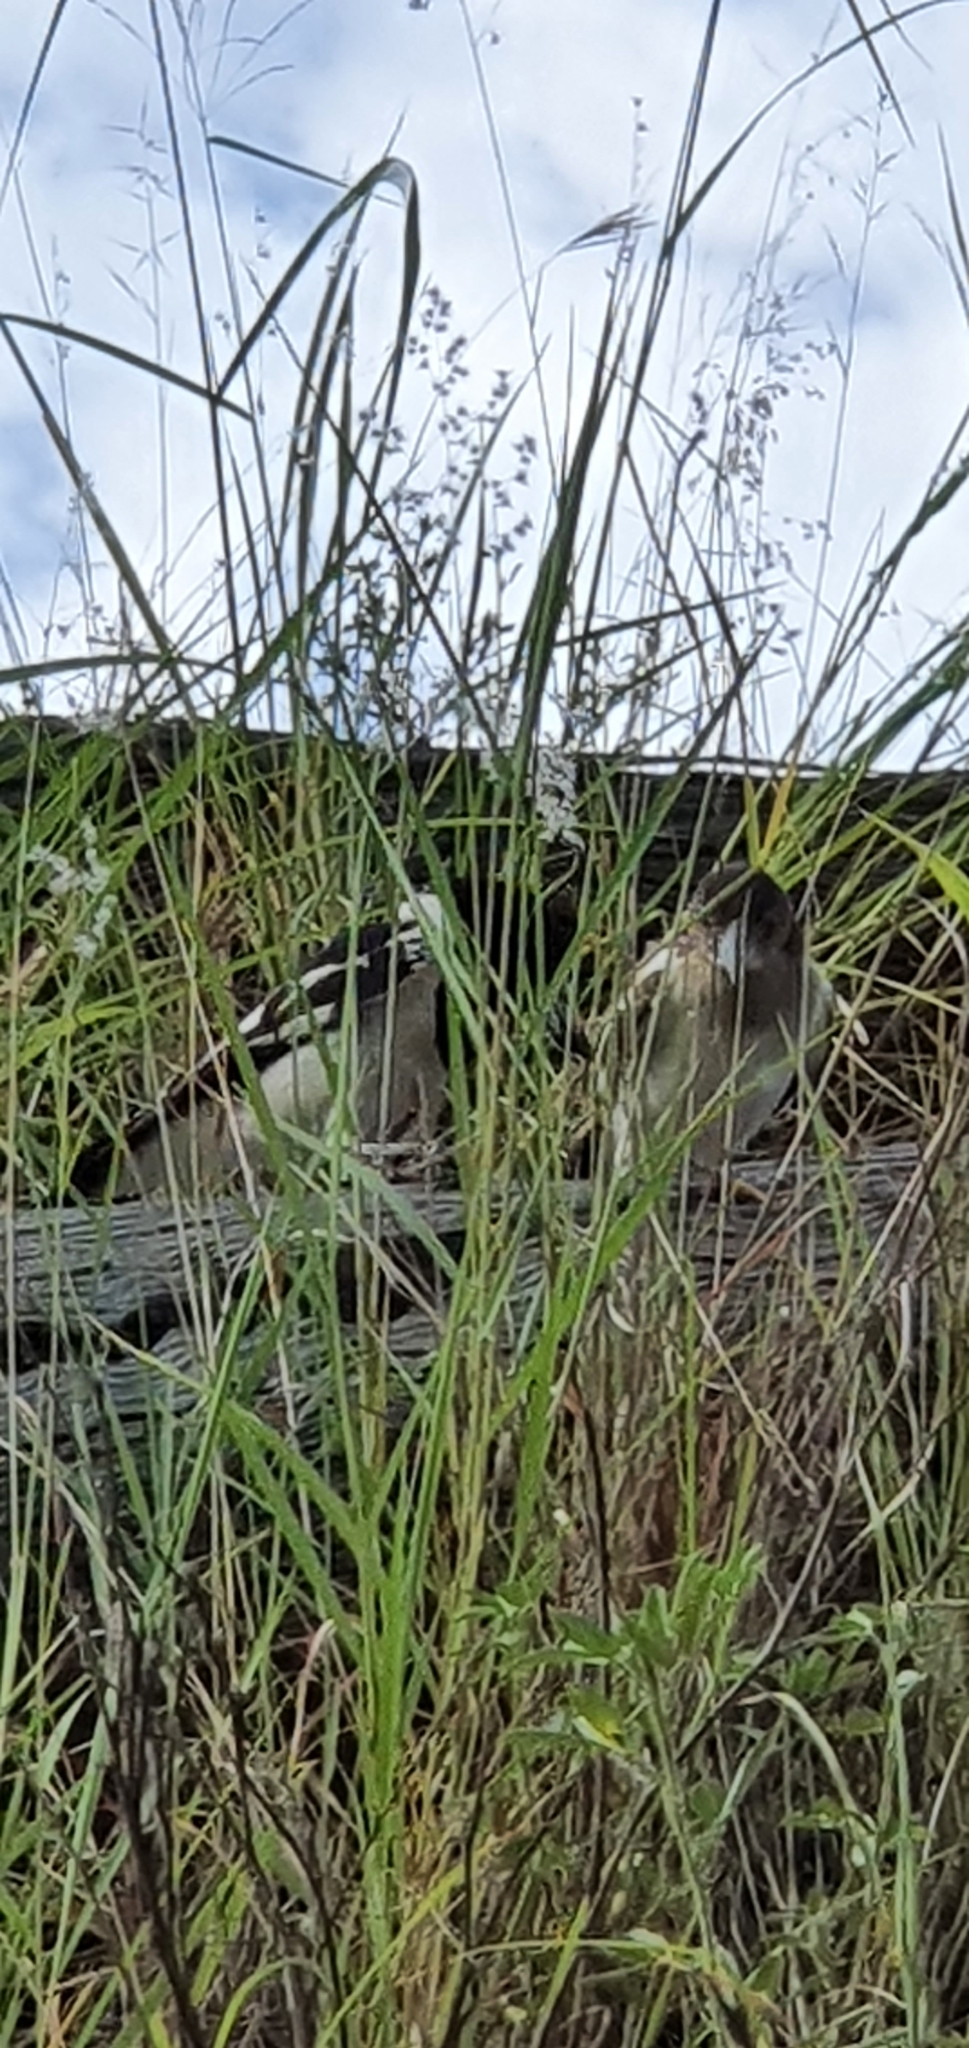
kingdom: Animalia
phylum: Chordata
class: Aves
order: Passeriformes
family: Cracticidae
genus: Cracticus
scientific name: Cracticus nigrogularis
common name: Pied butcherbird
